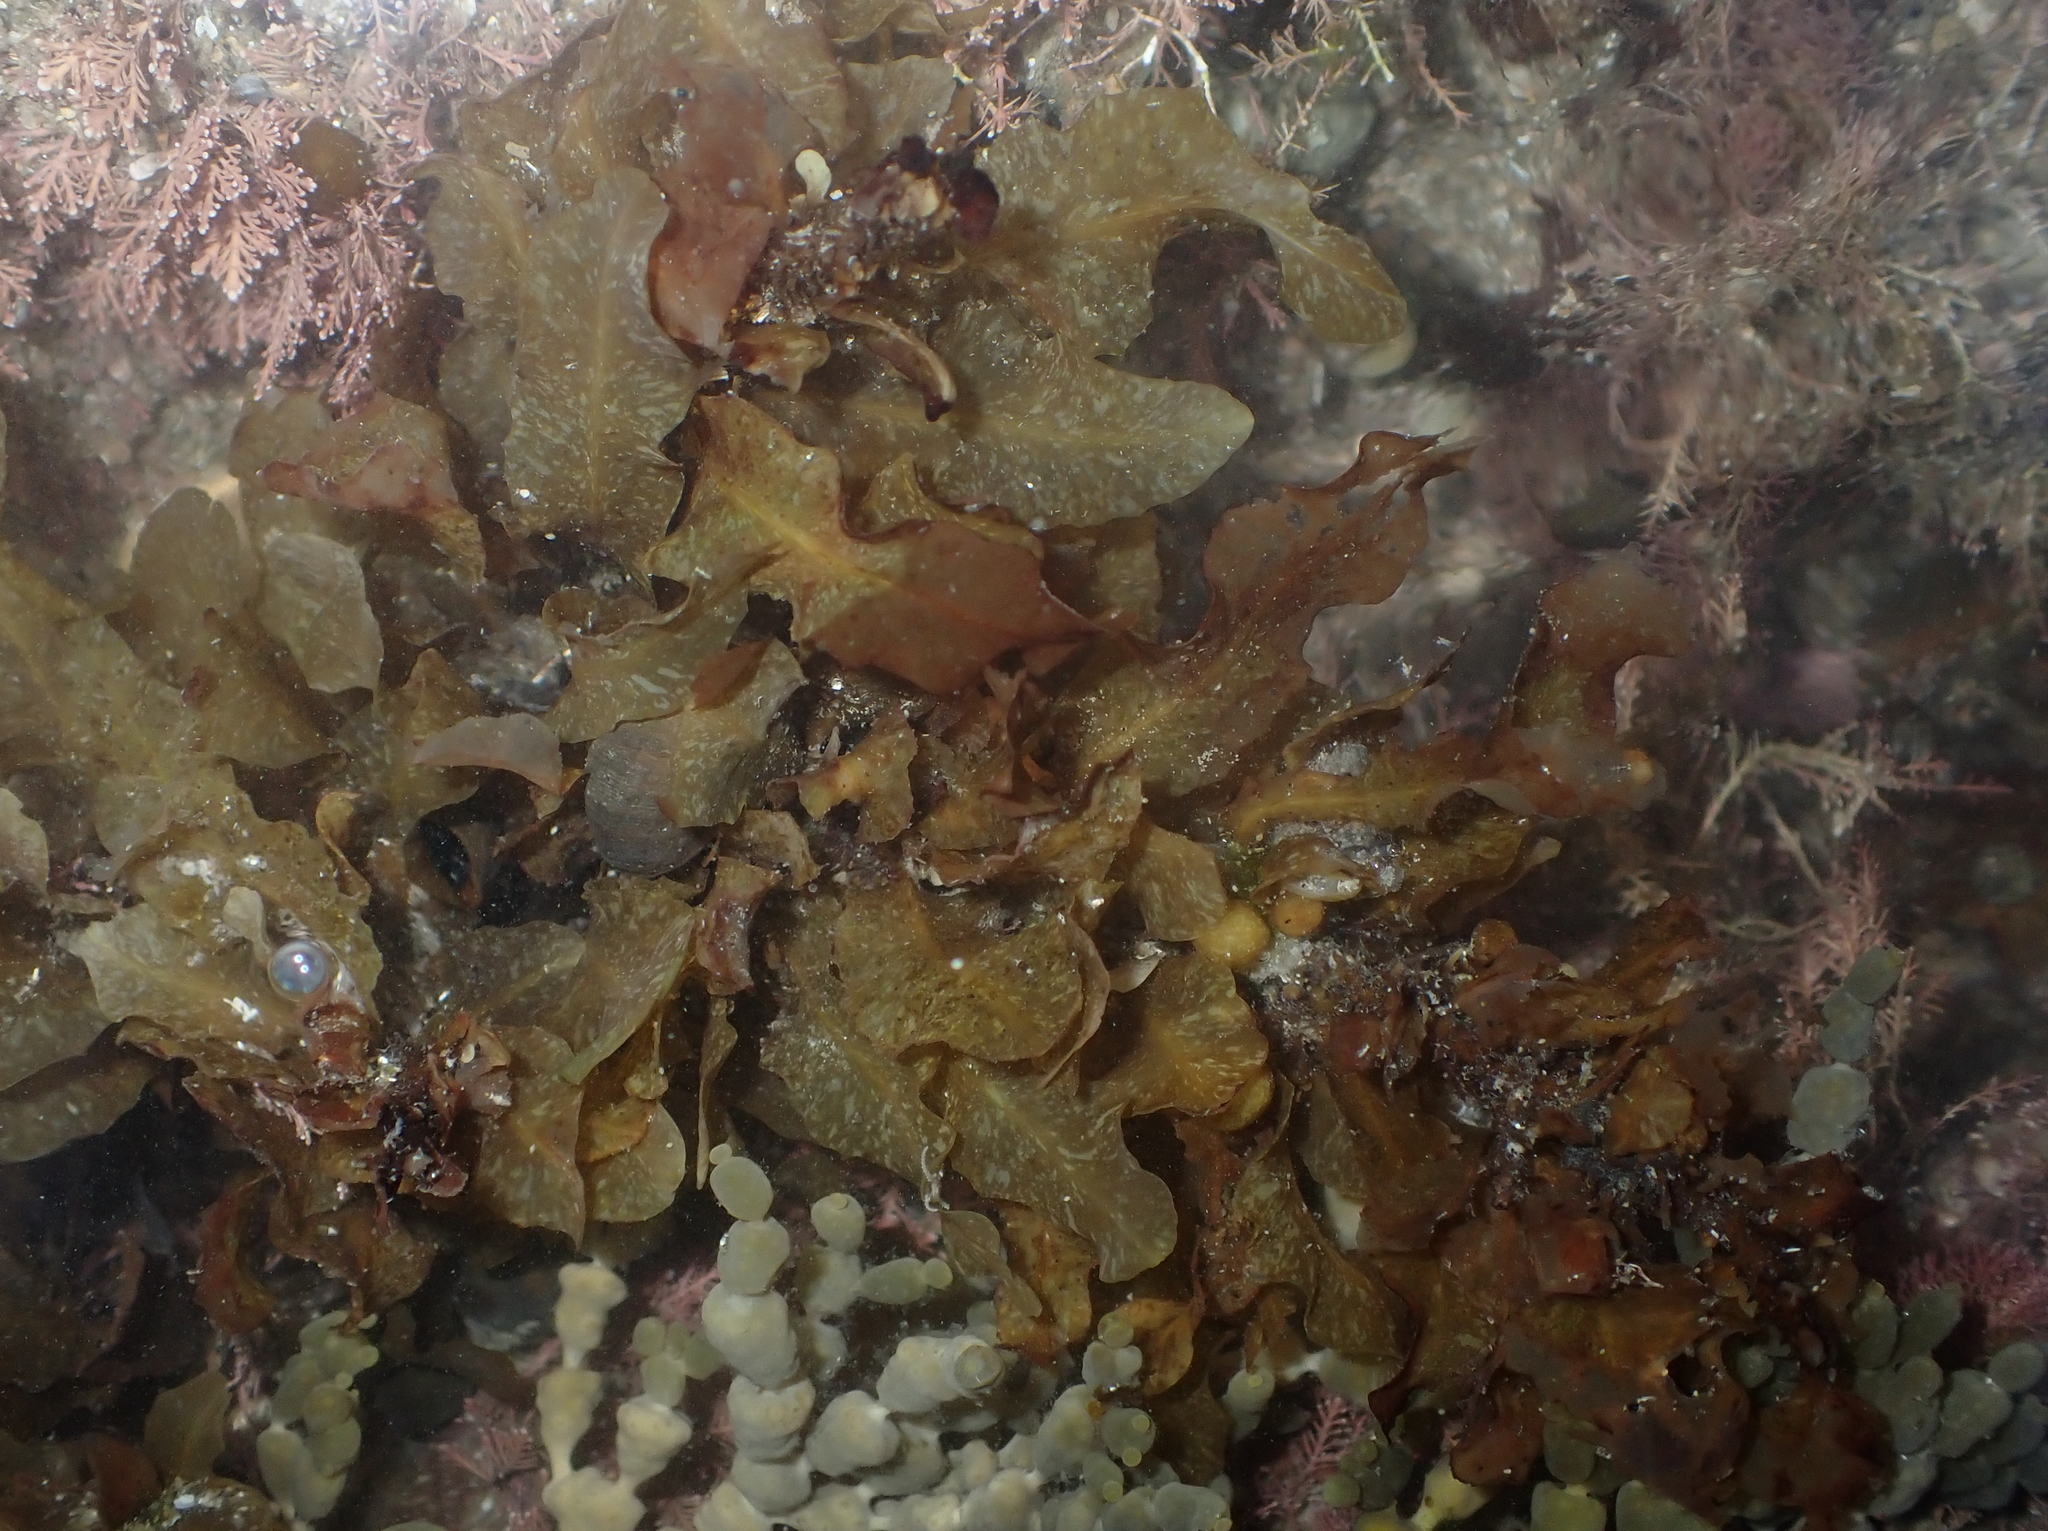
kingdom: Chromista
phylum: Ochrophyta
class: Phaeophyceae
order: Fucales
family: Sargassaceae
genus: Sargassum
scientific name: Sargassum sinclairii
